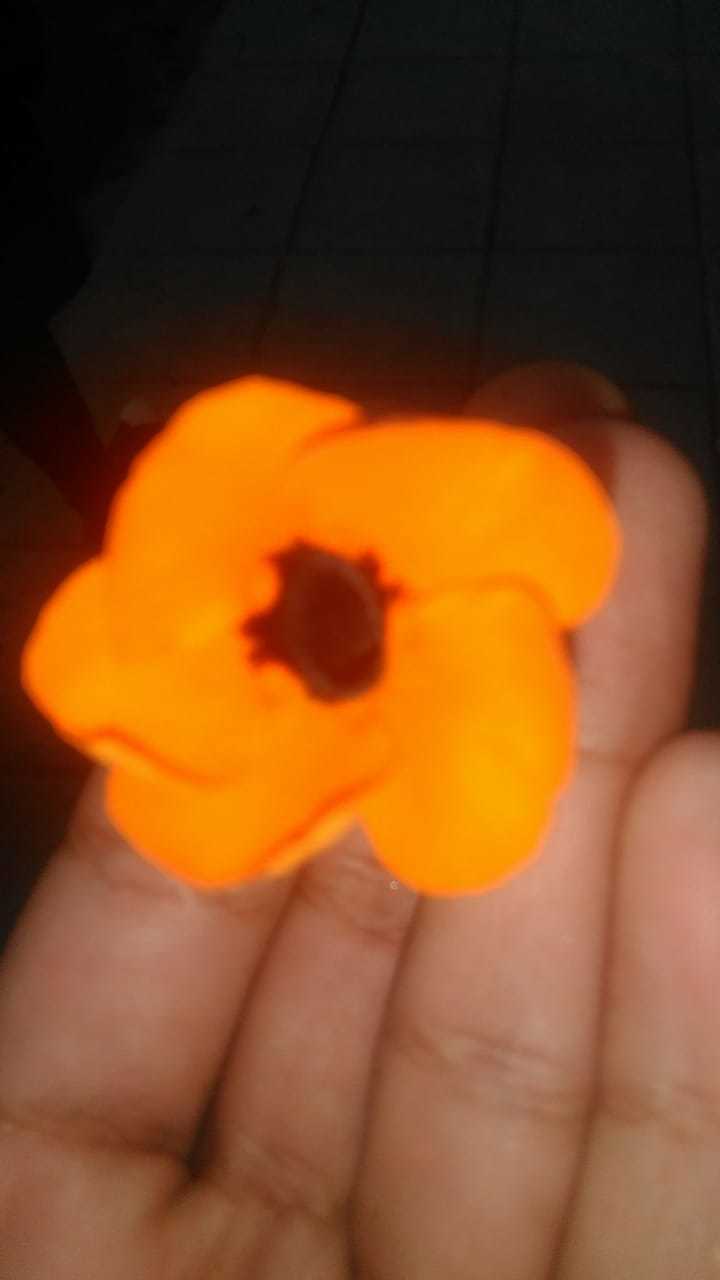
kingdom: Plantae
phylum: Tracheophyta
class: Magnoliopsida
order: Lamiales
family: Acanthaceae
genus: Thunbergia
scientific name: Thunbergia alata
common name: Blackeyed susan vine
